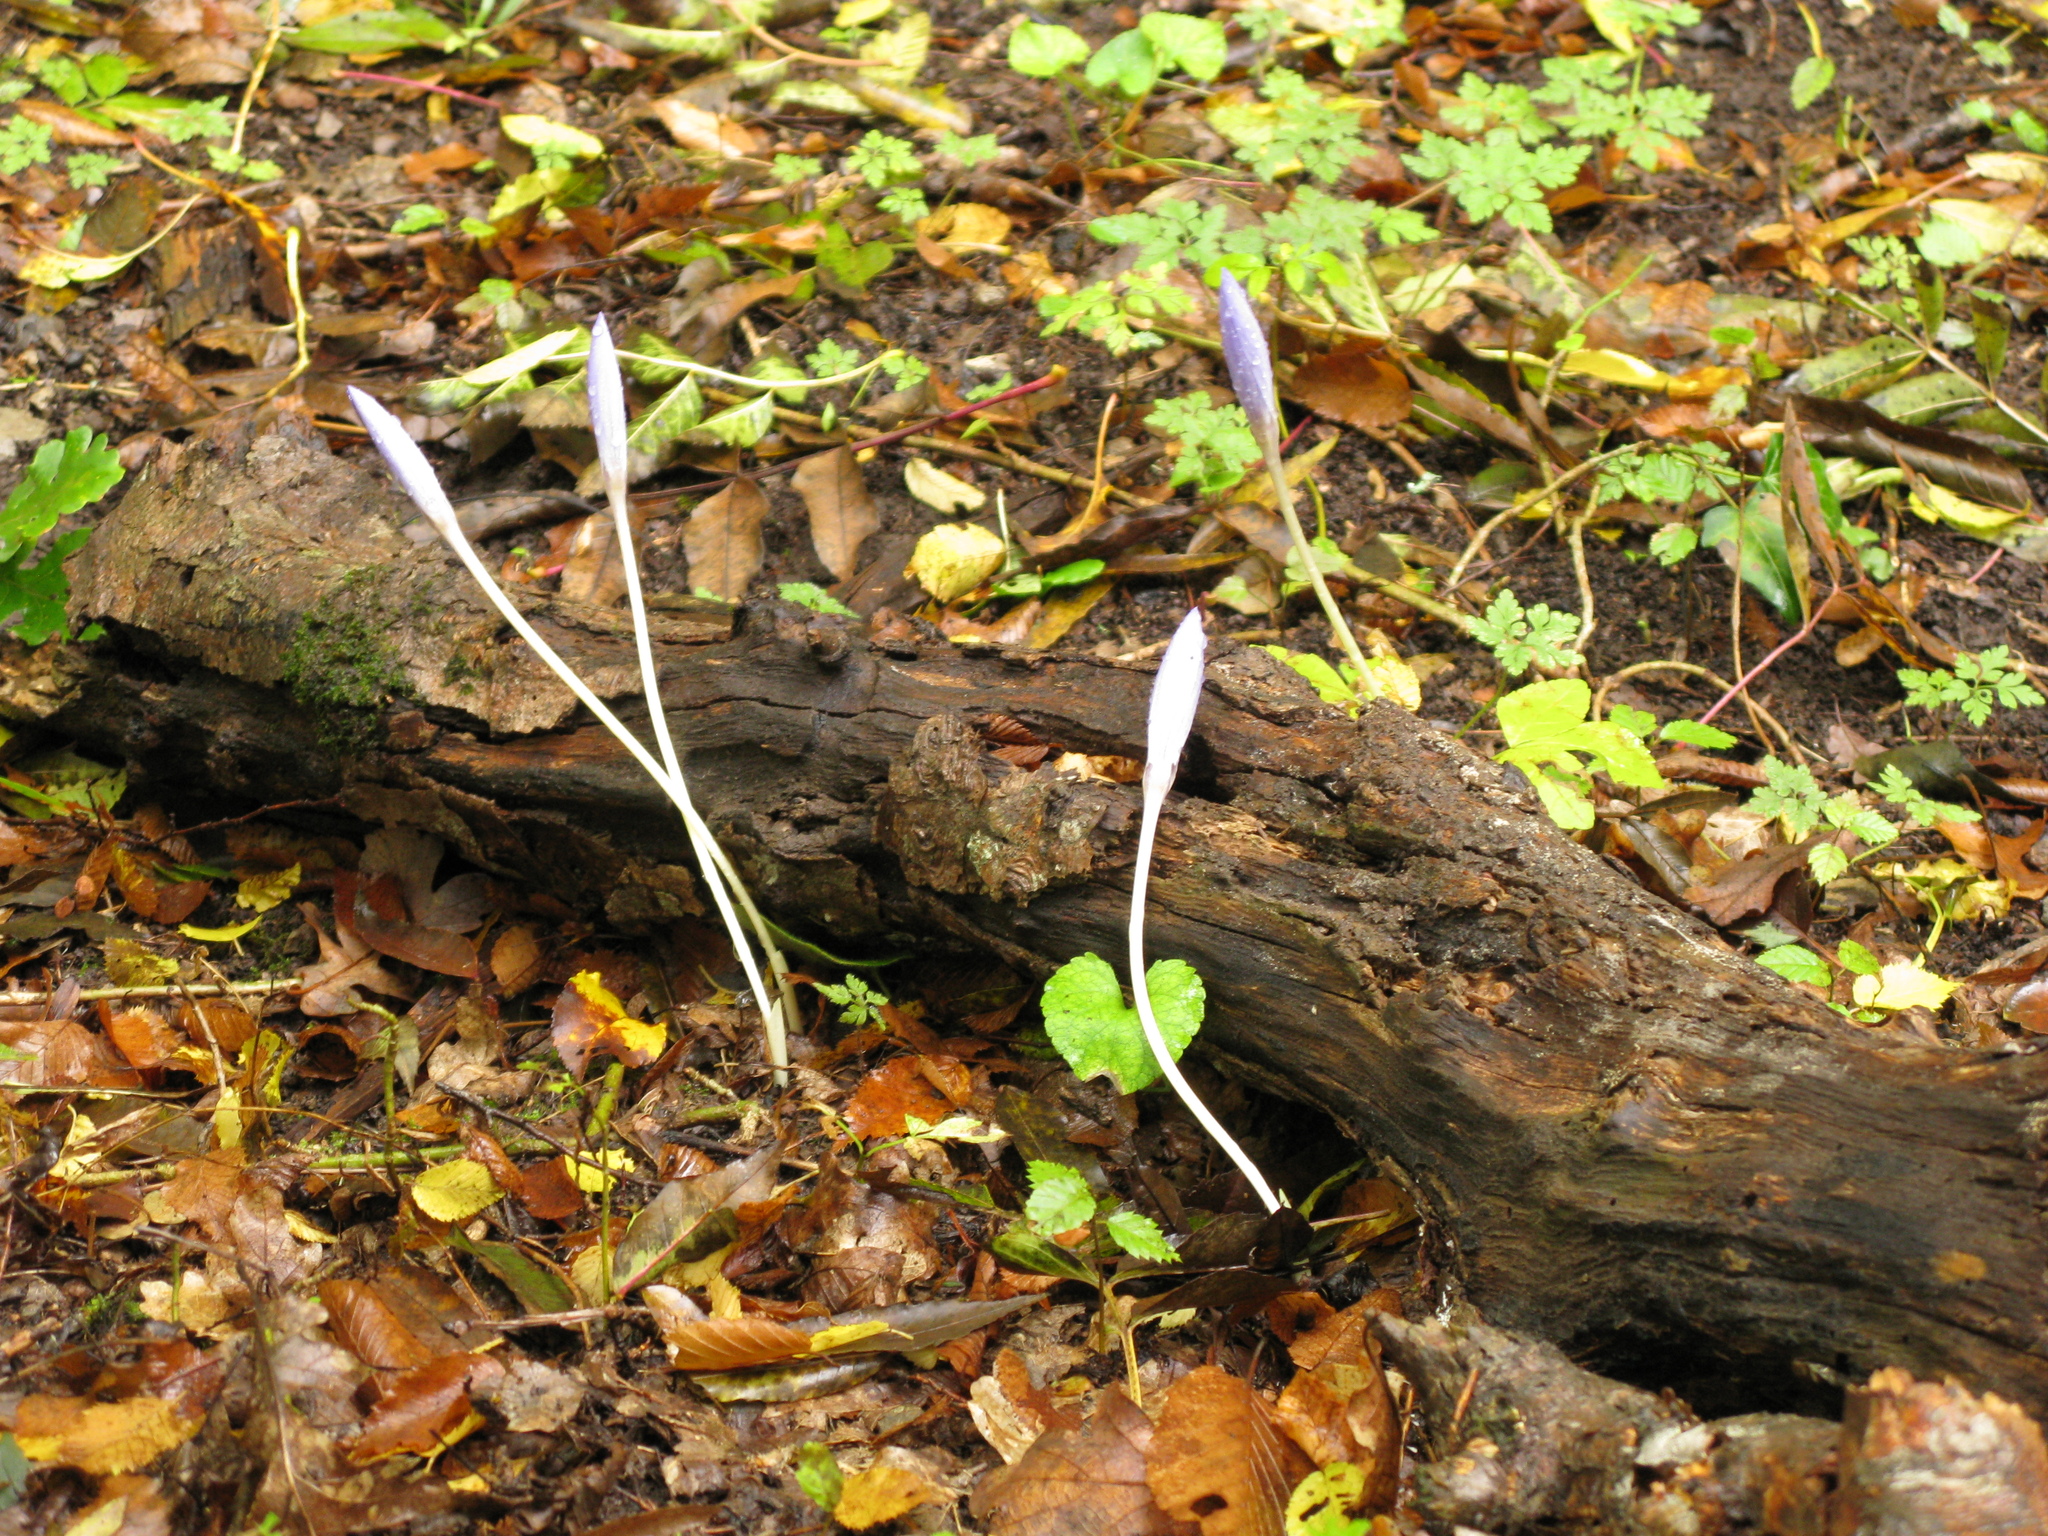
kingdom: Plantae
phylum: Tracheophyta
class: Liliopsida
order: Asparagales
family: Iridaceae
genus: Crocus
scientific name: Crocus speciosus
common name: Bieberstein's crocus
